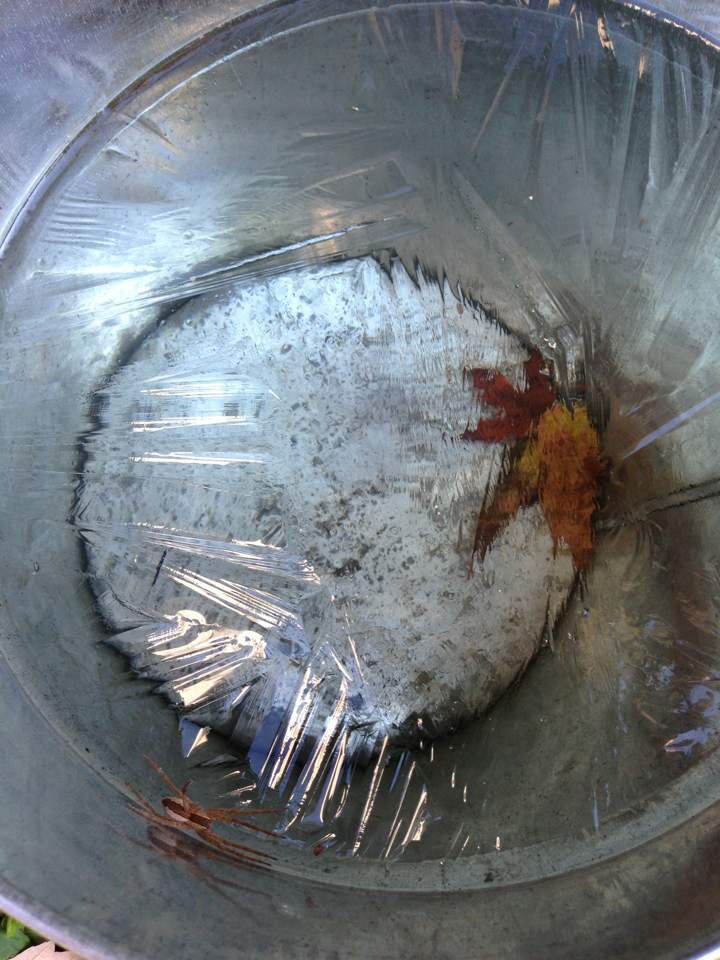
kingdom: Animalia
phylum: Arthropoda
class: Arachnida
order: Araneae
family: Pisauridae
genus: Pisaurina
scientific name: Pisaurina mira
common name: American nursery web spider
